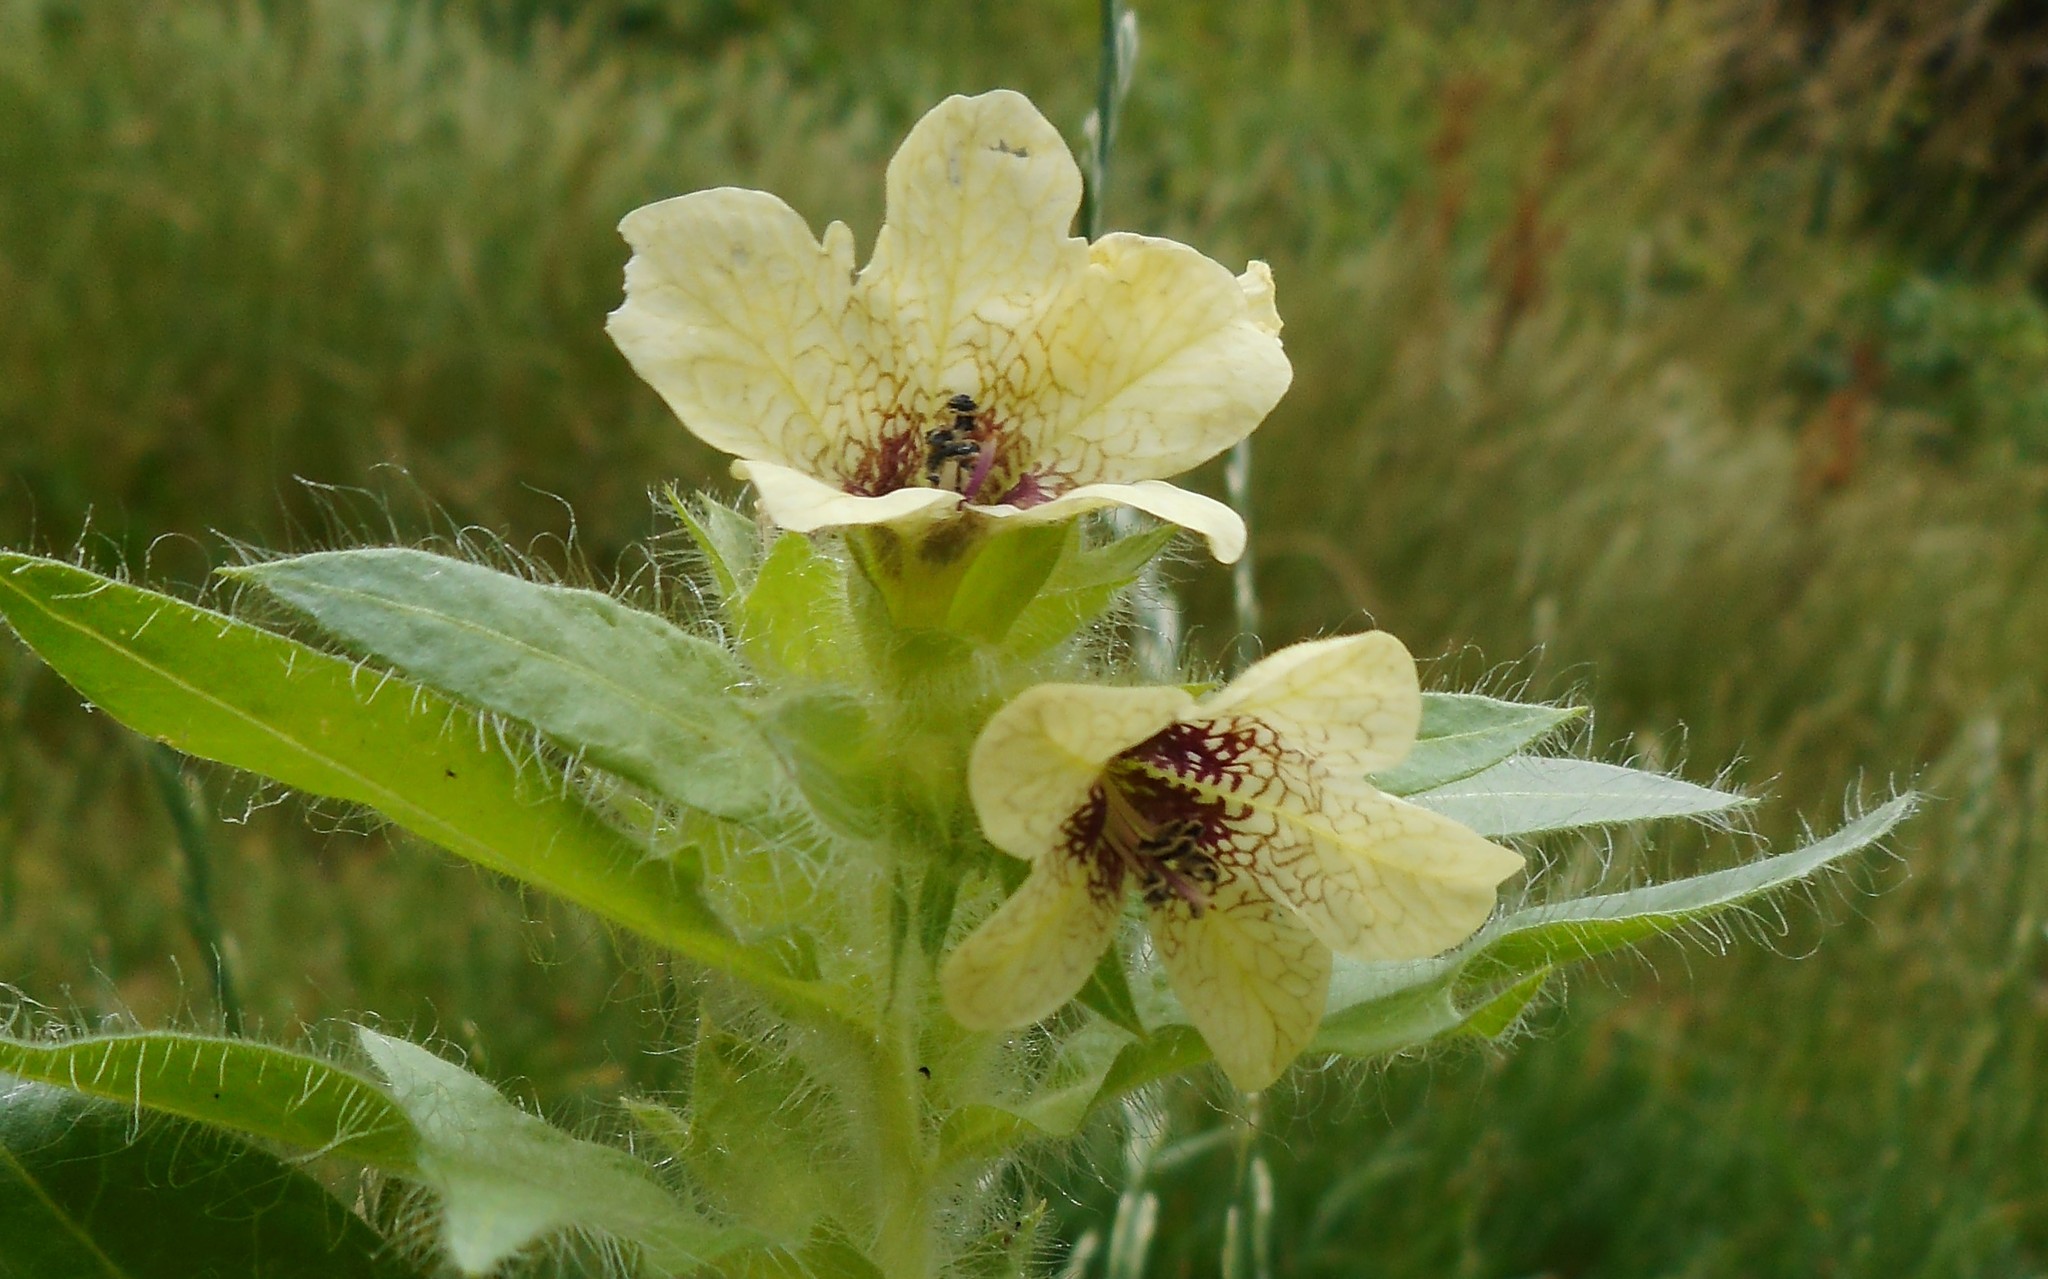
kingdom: Plantae
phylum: Tracheophyta
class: Magnoliopsida
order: Solanales
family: Solanaceae
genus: Hyoscyamus
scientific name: Hyoscyamus niger
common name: Henbane
